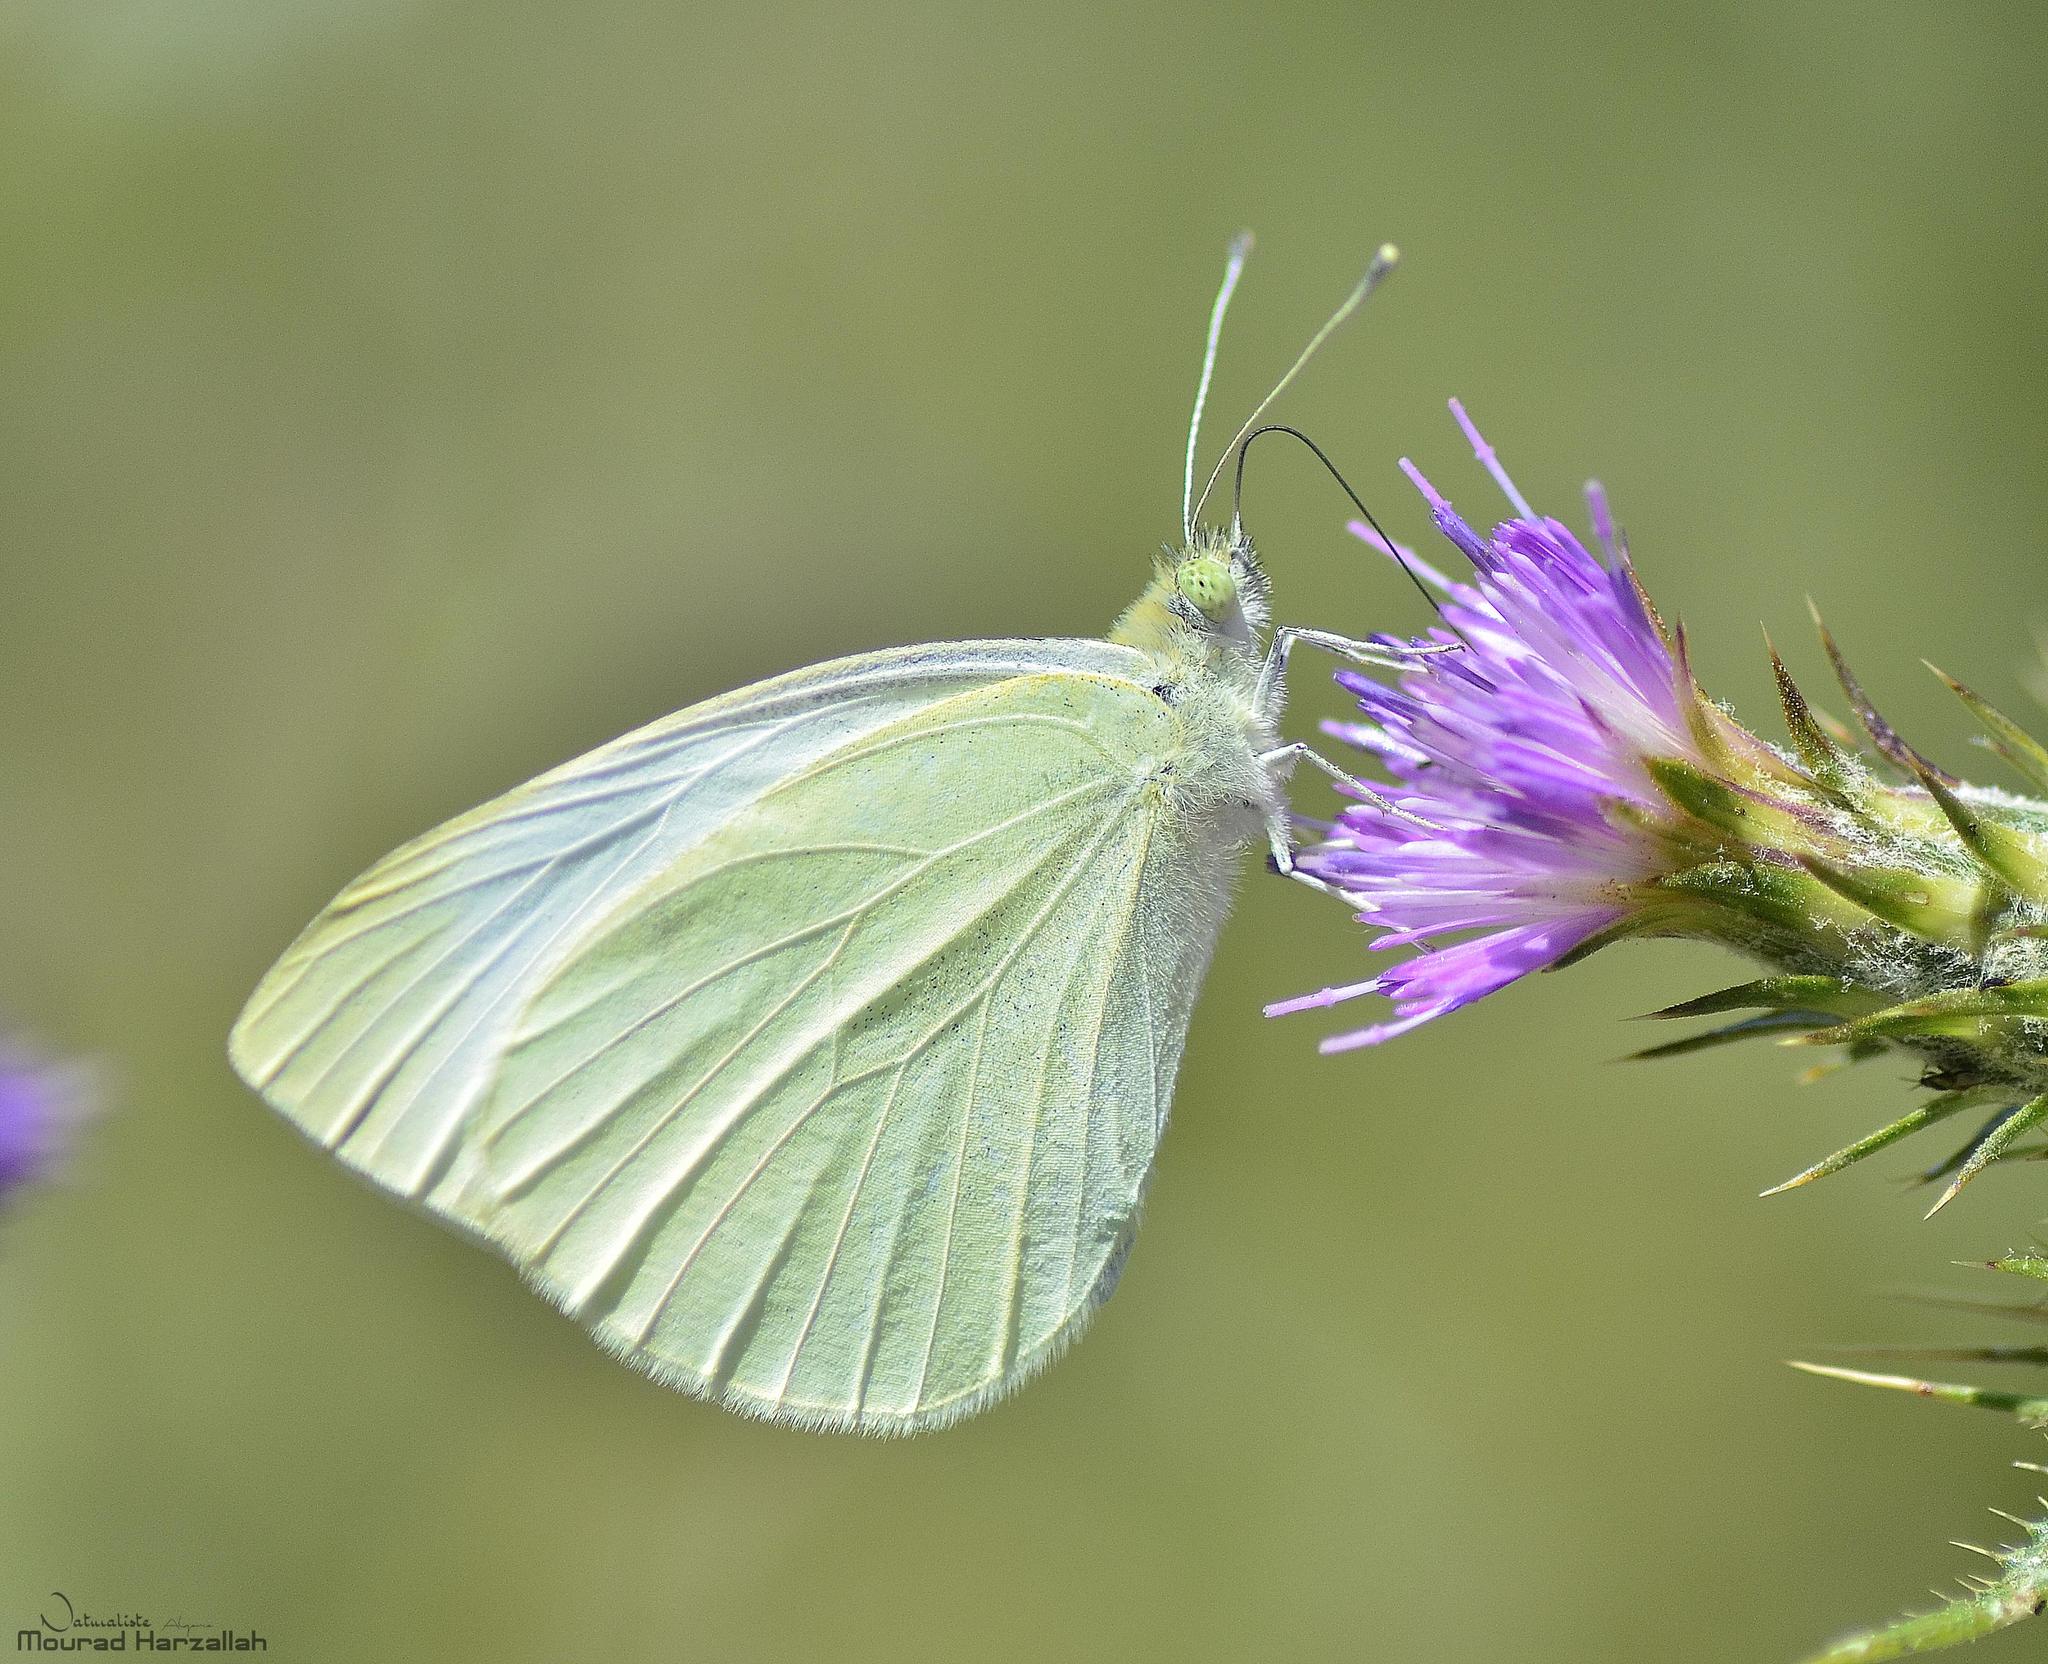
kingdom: Animalia
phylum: Arthropoda
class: Insecta
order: Lepidoptera
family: Pieridae
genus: Pieris
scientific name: Pieris brassicae
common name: Large white
